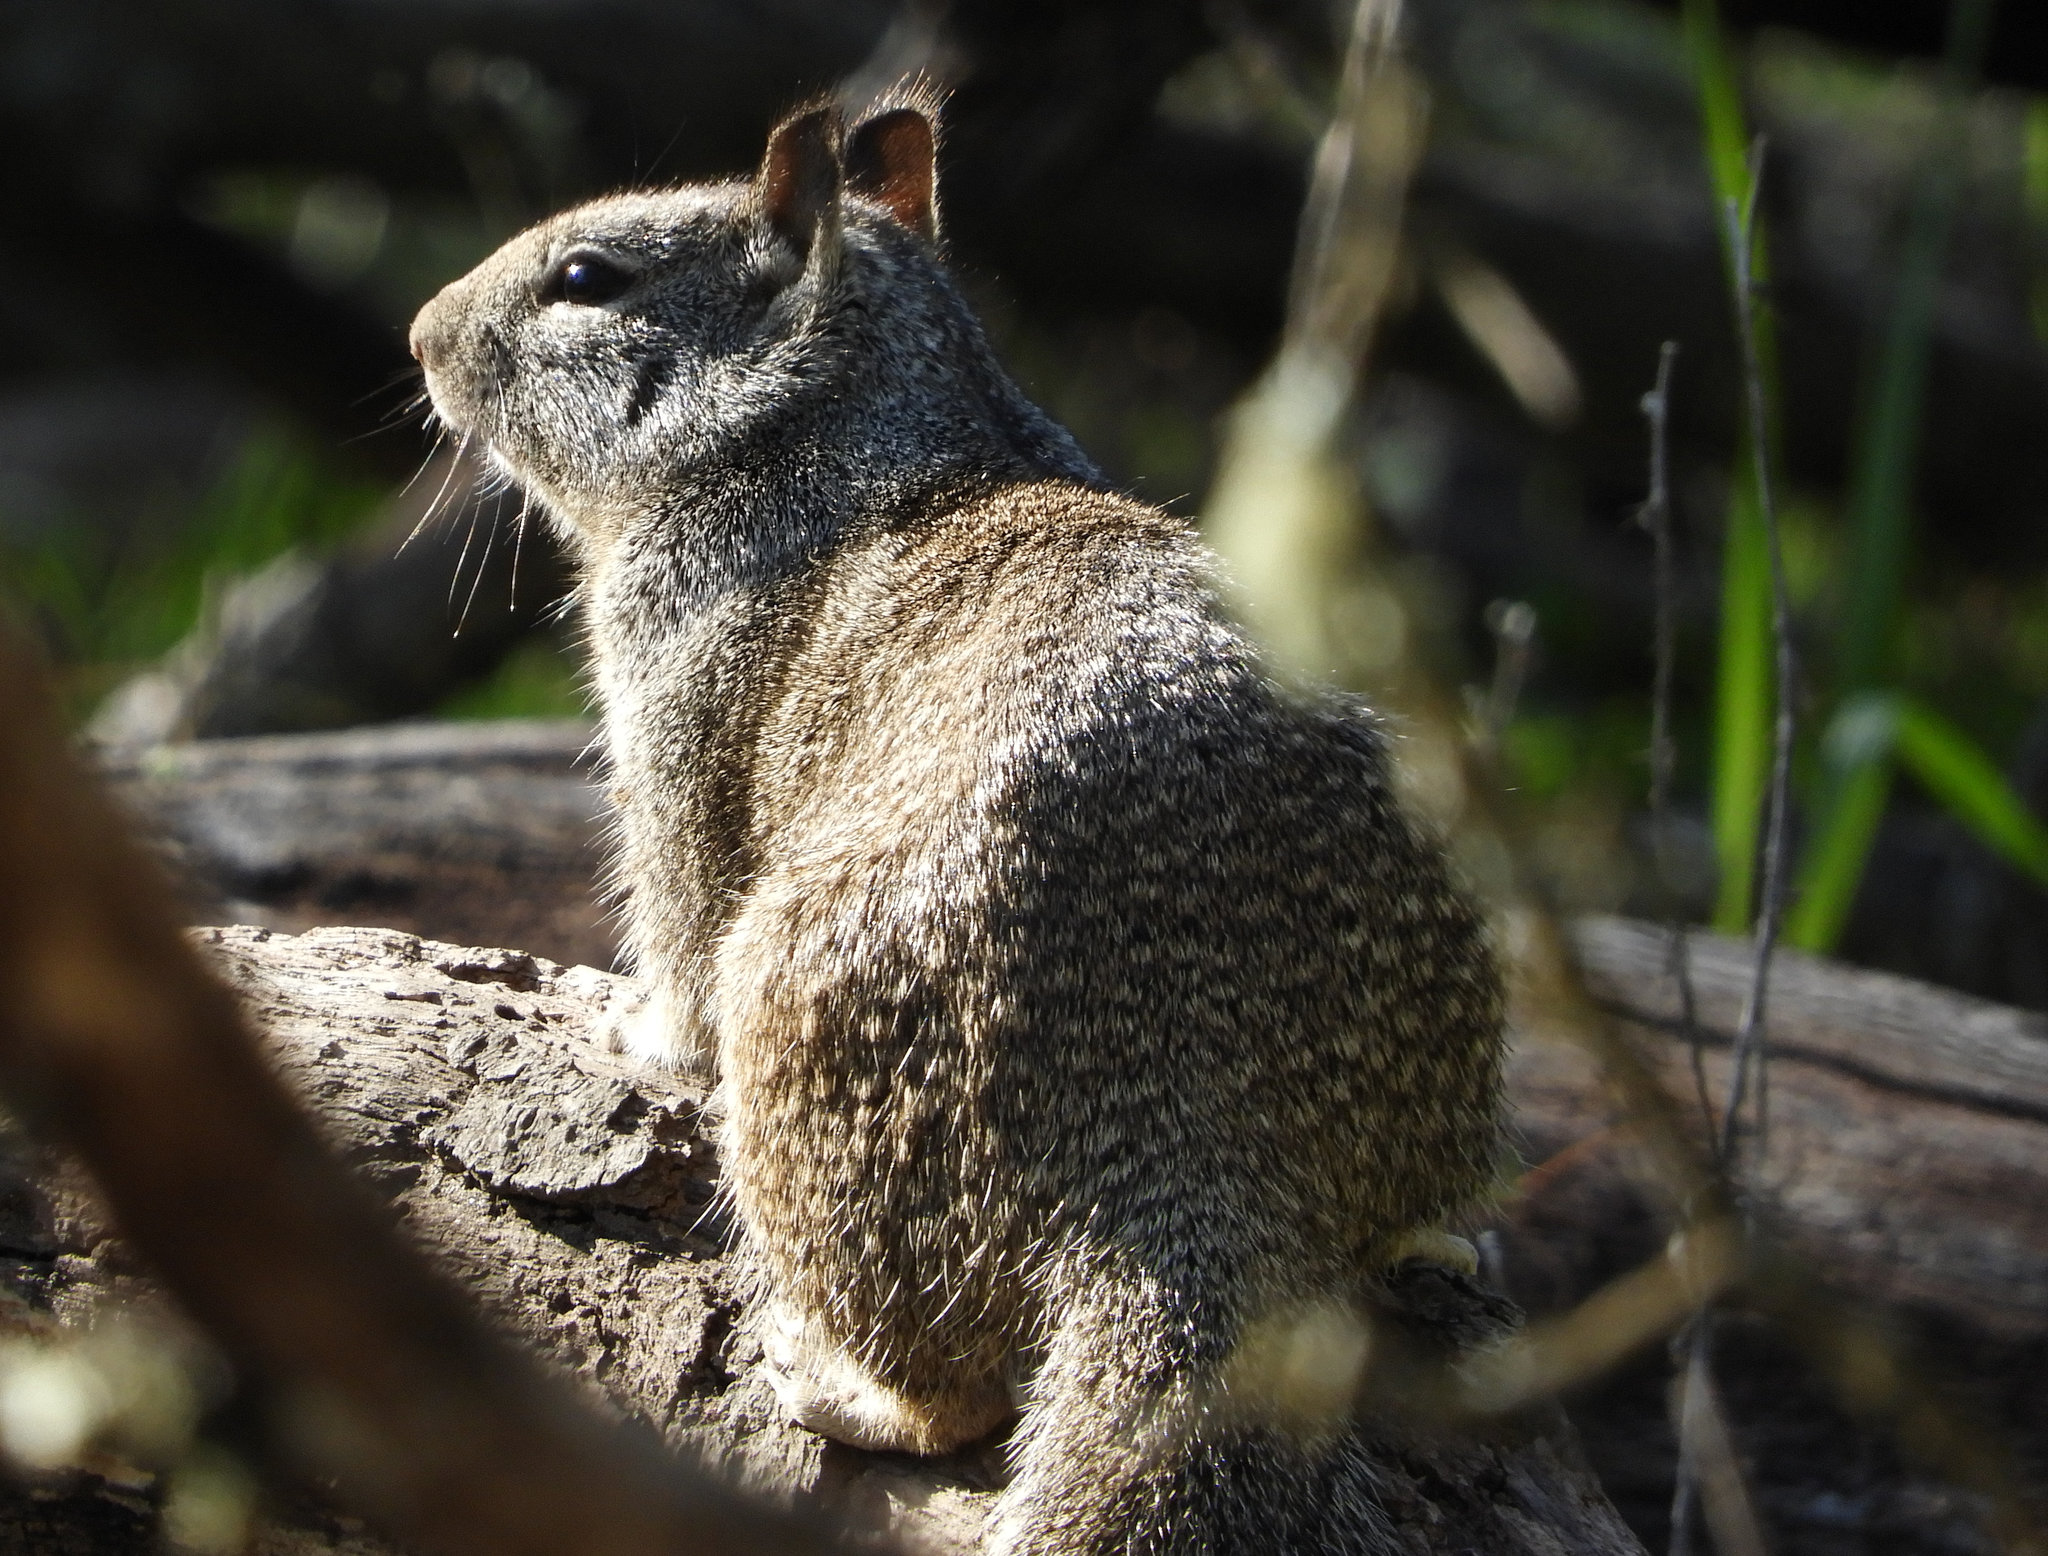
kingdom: Animalia
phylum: Chordata
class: Mammalia
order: Rodentia
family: Sciuridae
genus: Otospermophilus
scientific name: Otospermophilus beecheyi
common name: California ground squirrel
